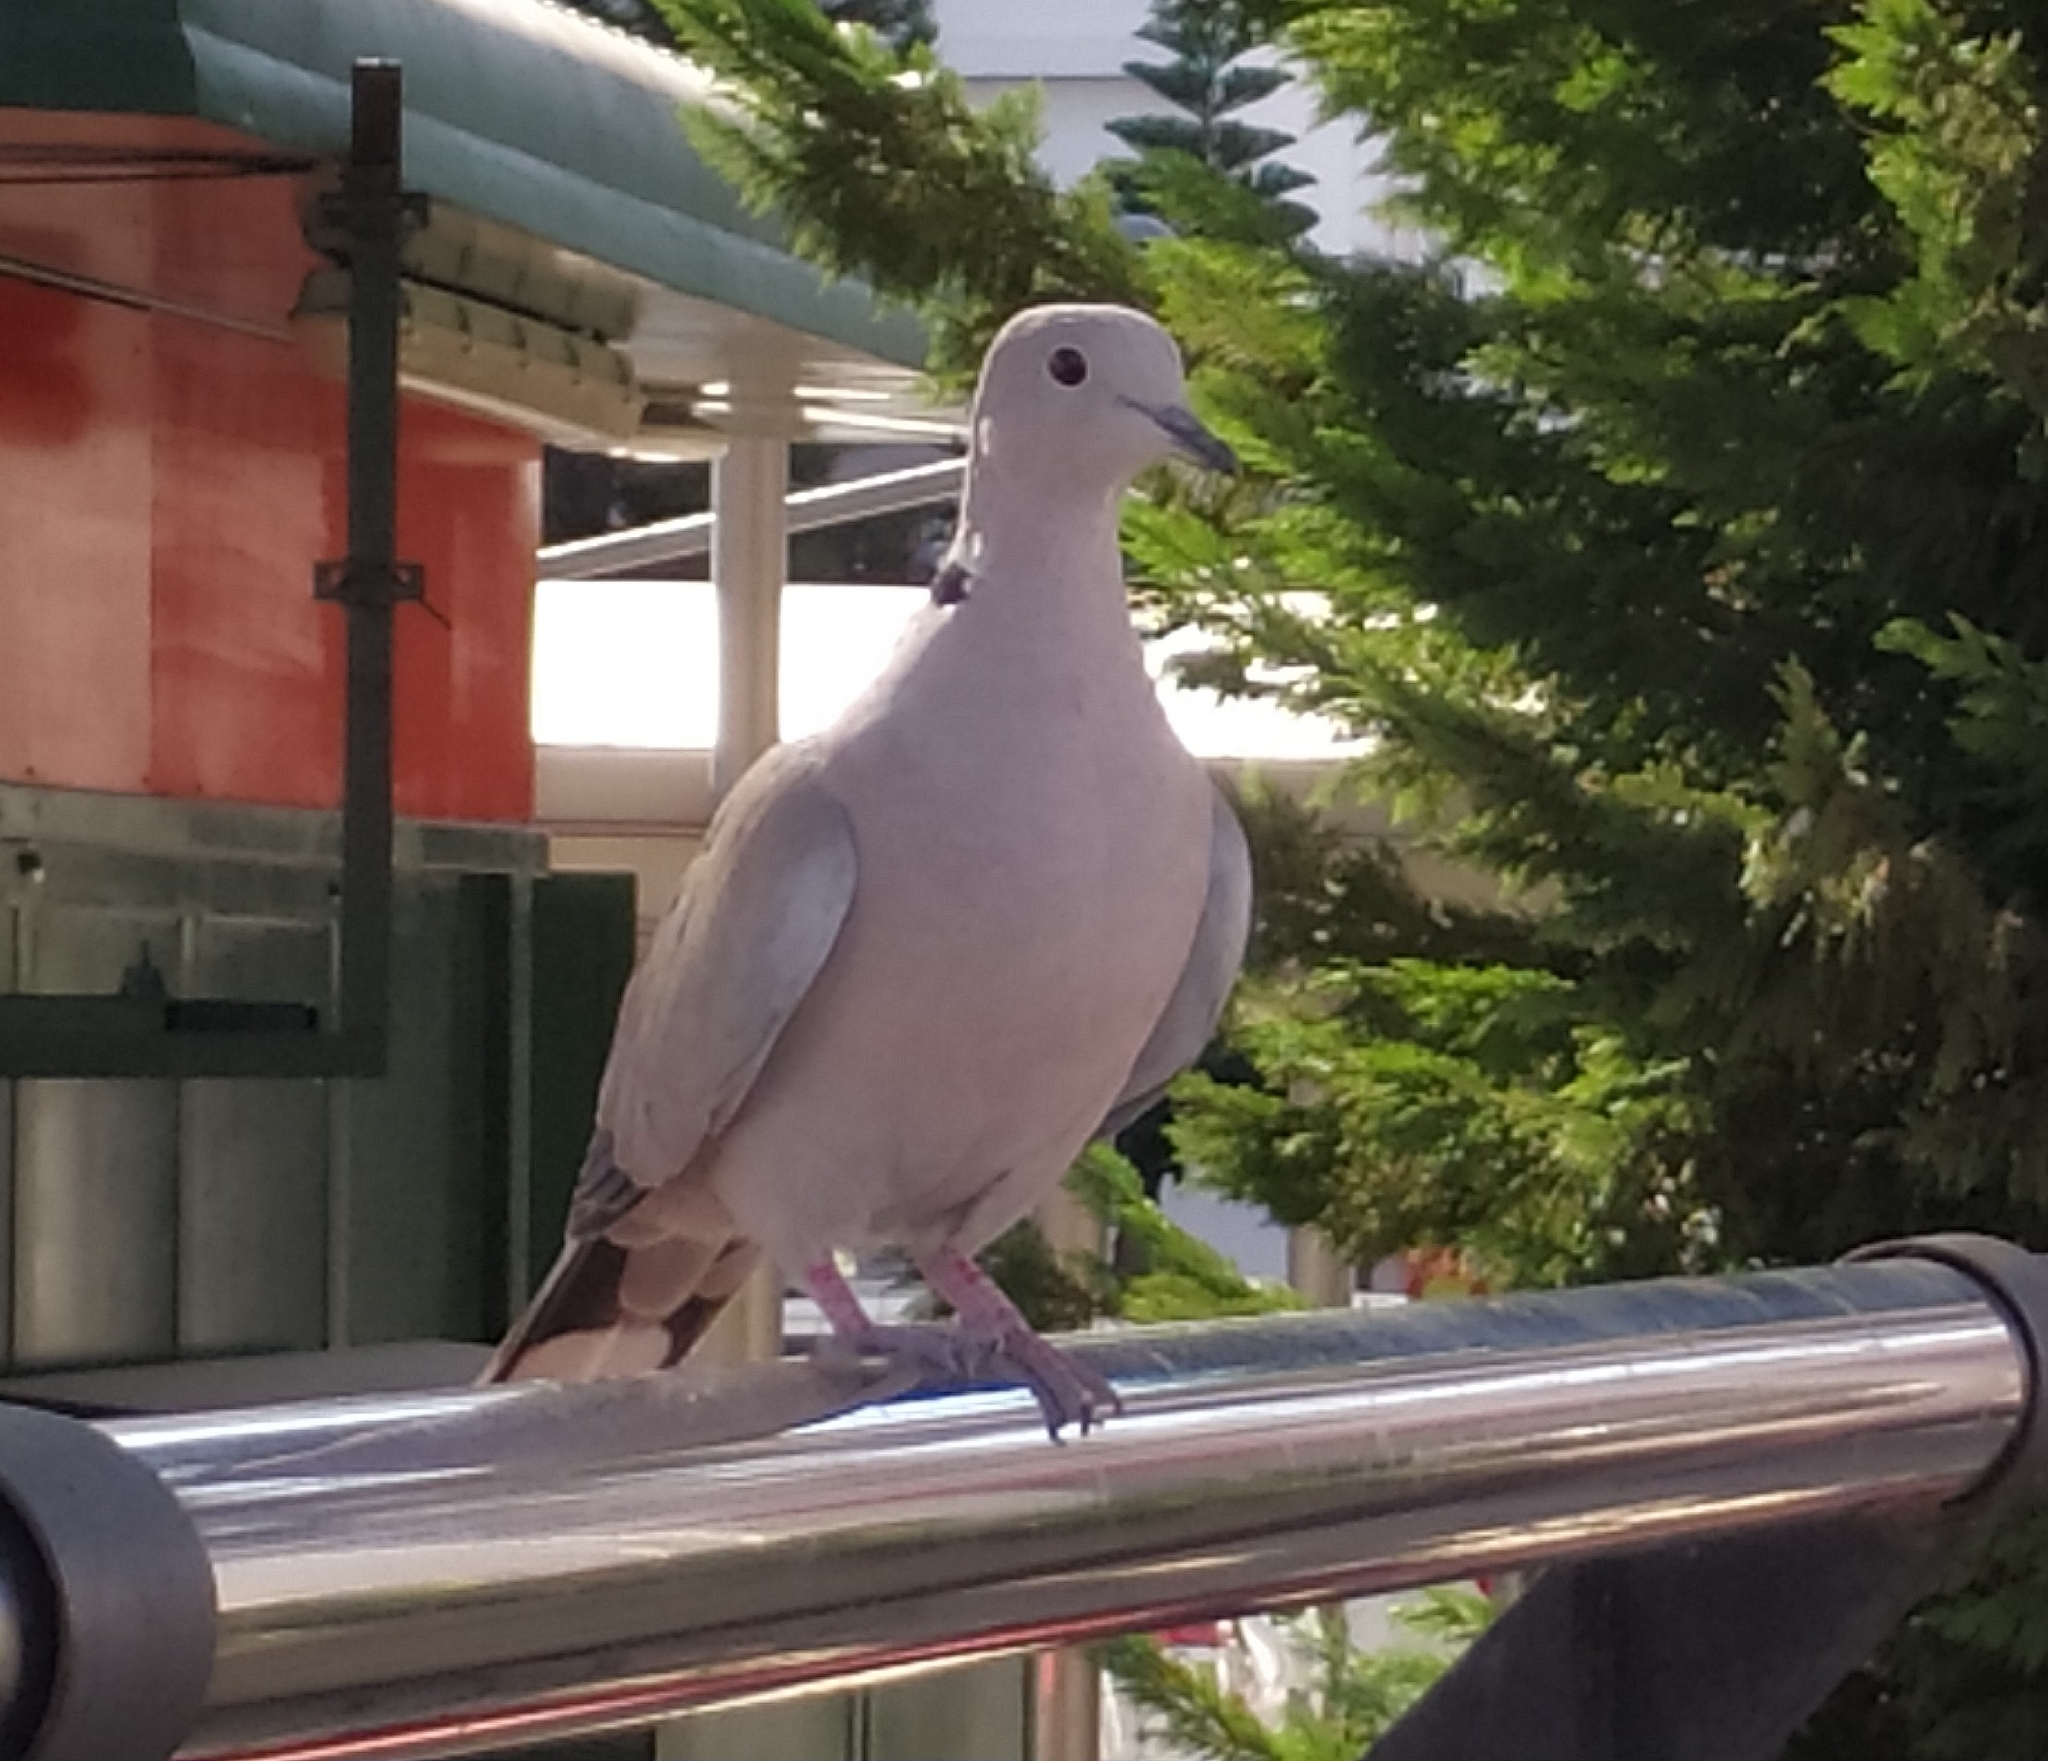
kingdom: Animalia
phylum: Chordata
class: Aves
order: Columbiformes
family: Columbidae
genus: Streptopelia
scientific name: Streptopelia decaocto
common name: Eurasian collared dove
